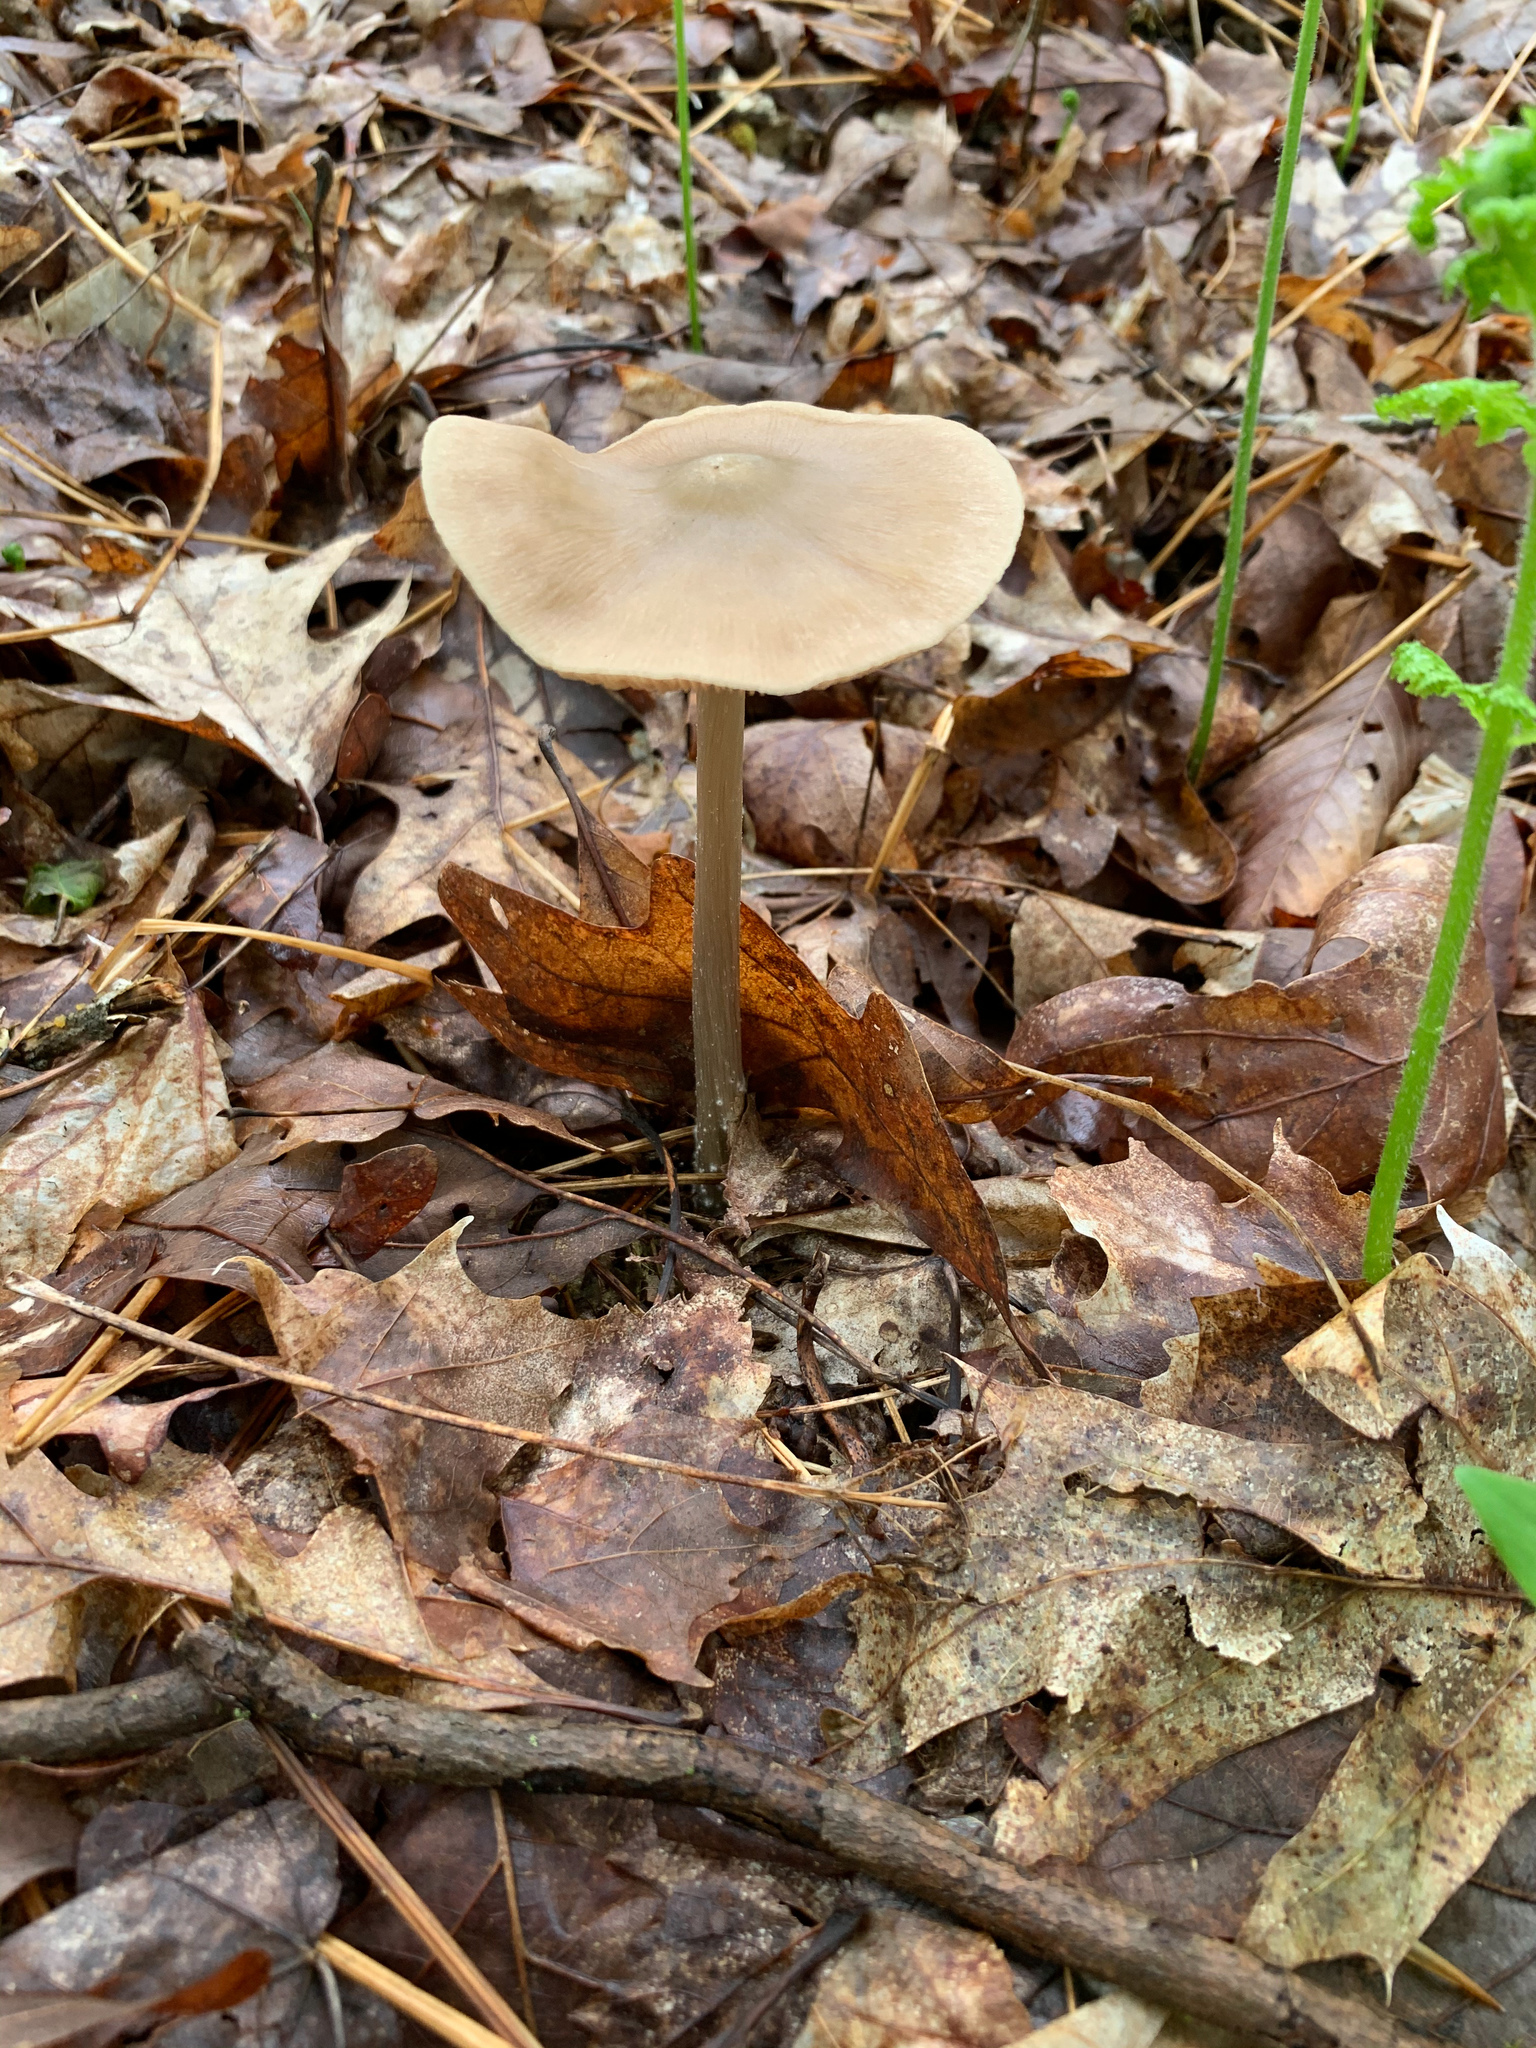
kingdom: Fungi
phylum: Basidiomycota
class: Agaricomycetes
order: Agaricales
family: Entolomataceae
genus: Entoloma
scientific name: Entoloma strictius
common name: Straight-stalked entoloma
